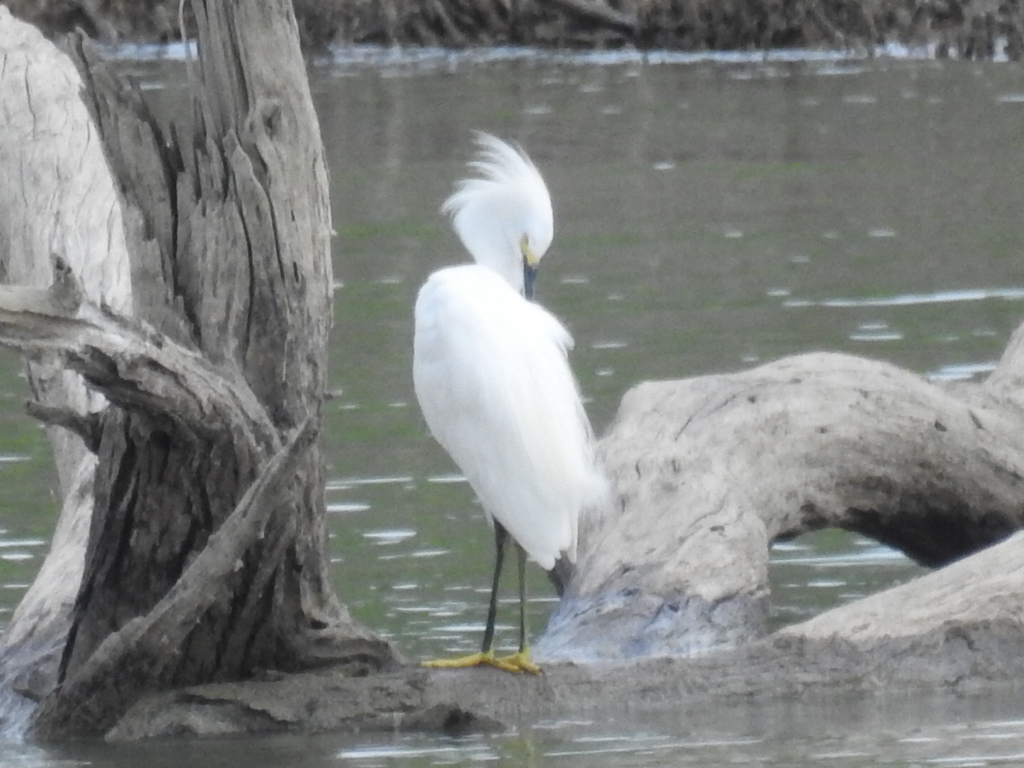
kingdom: Animalia
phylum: Chordata
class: Aves
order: Pelecaniformes
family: Ardeidae
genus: Egretta
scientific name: Egretta thula
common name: Snowy egret
